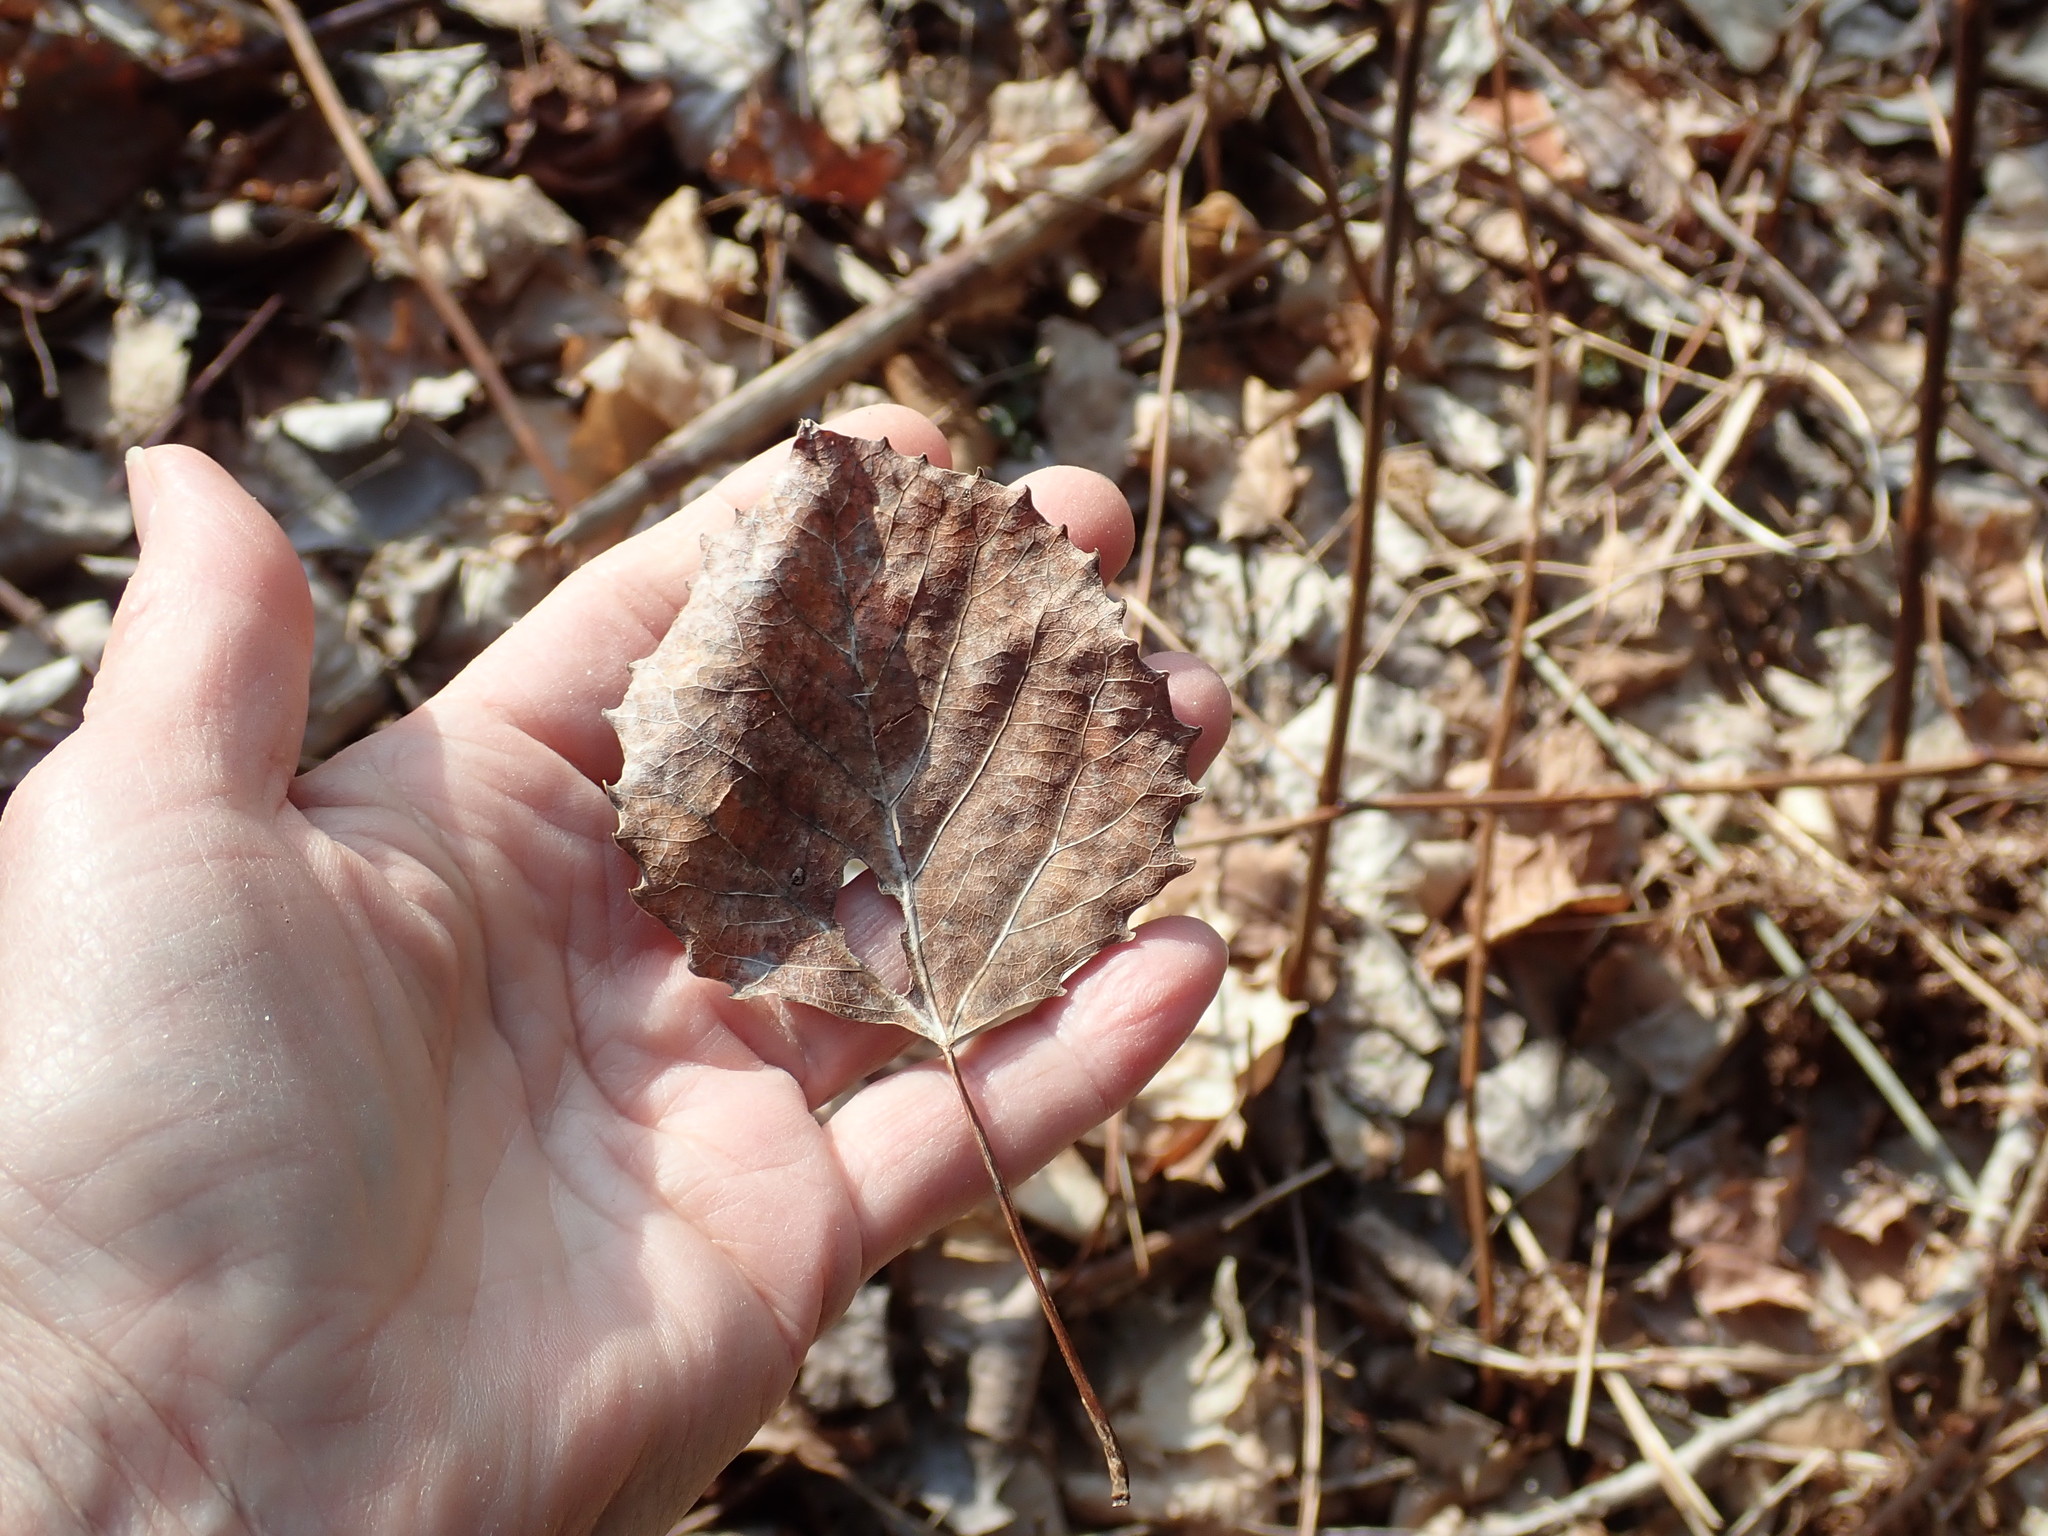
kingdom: Plantae
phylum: Tracheophyta
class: Magnoliopsida
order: Malpighiales
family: Salicaceae
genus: Populus
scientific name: Populus grandidentata
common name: Bigtooth aspen
